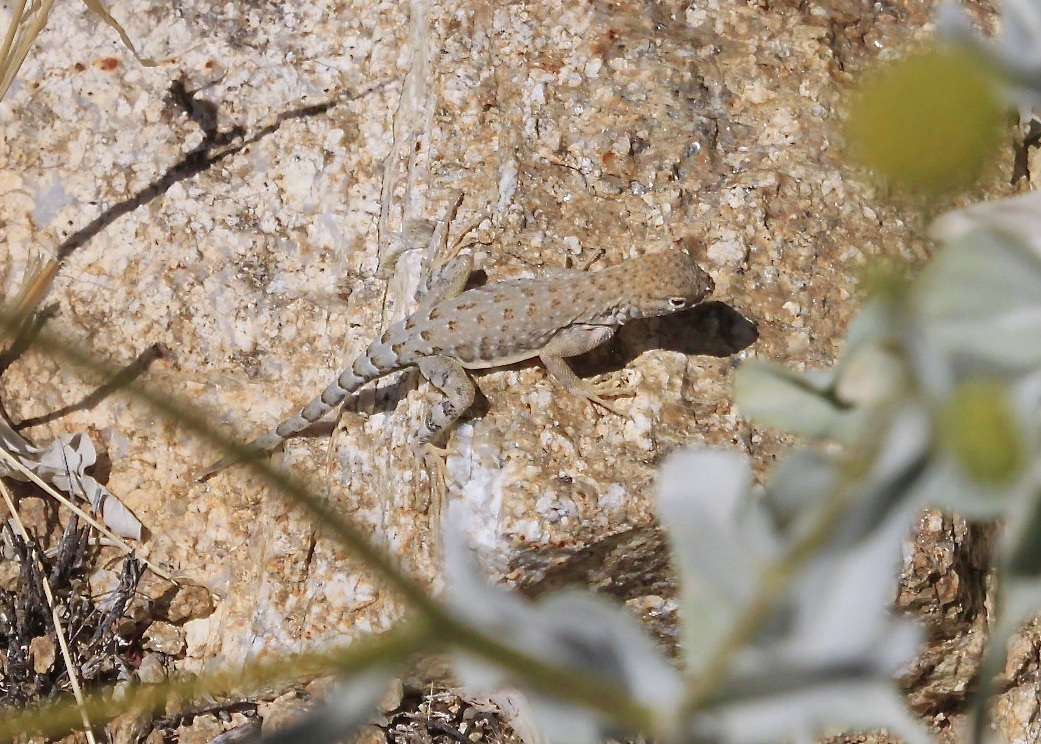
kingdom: Animalia
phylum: Chordata
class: Squamata
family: Phrynosomatidae
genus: Cophosaurus
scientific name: Cophosaurus texanus
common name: Greater earless lizard
